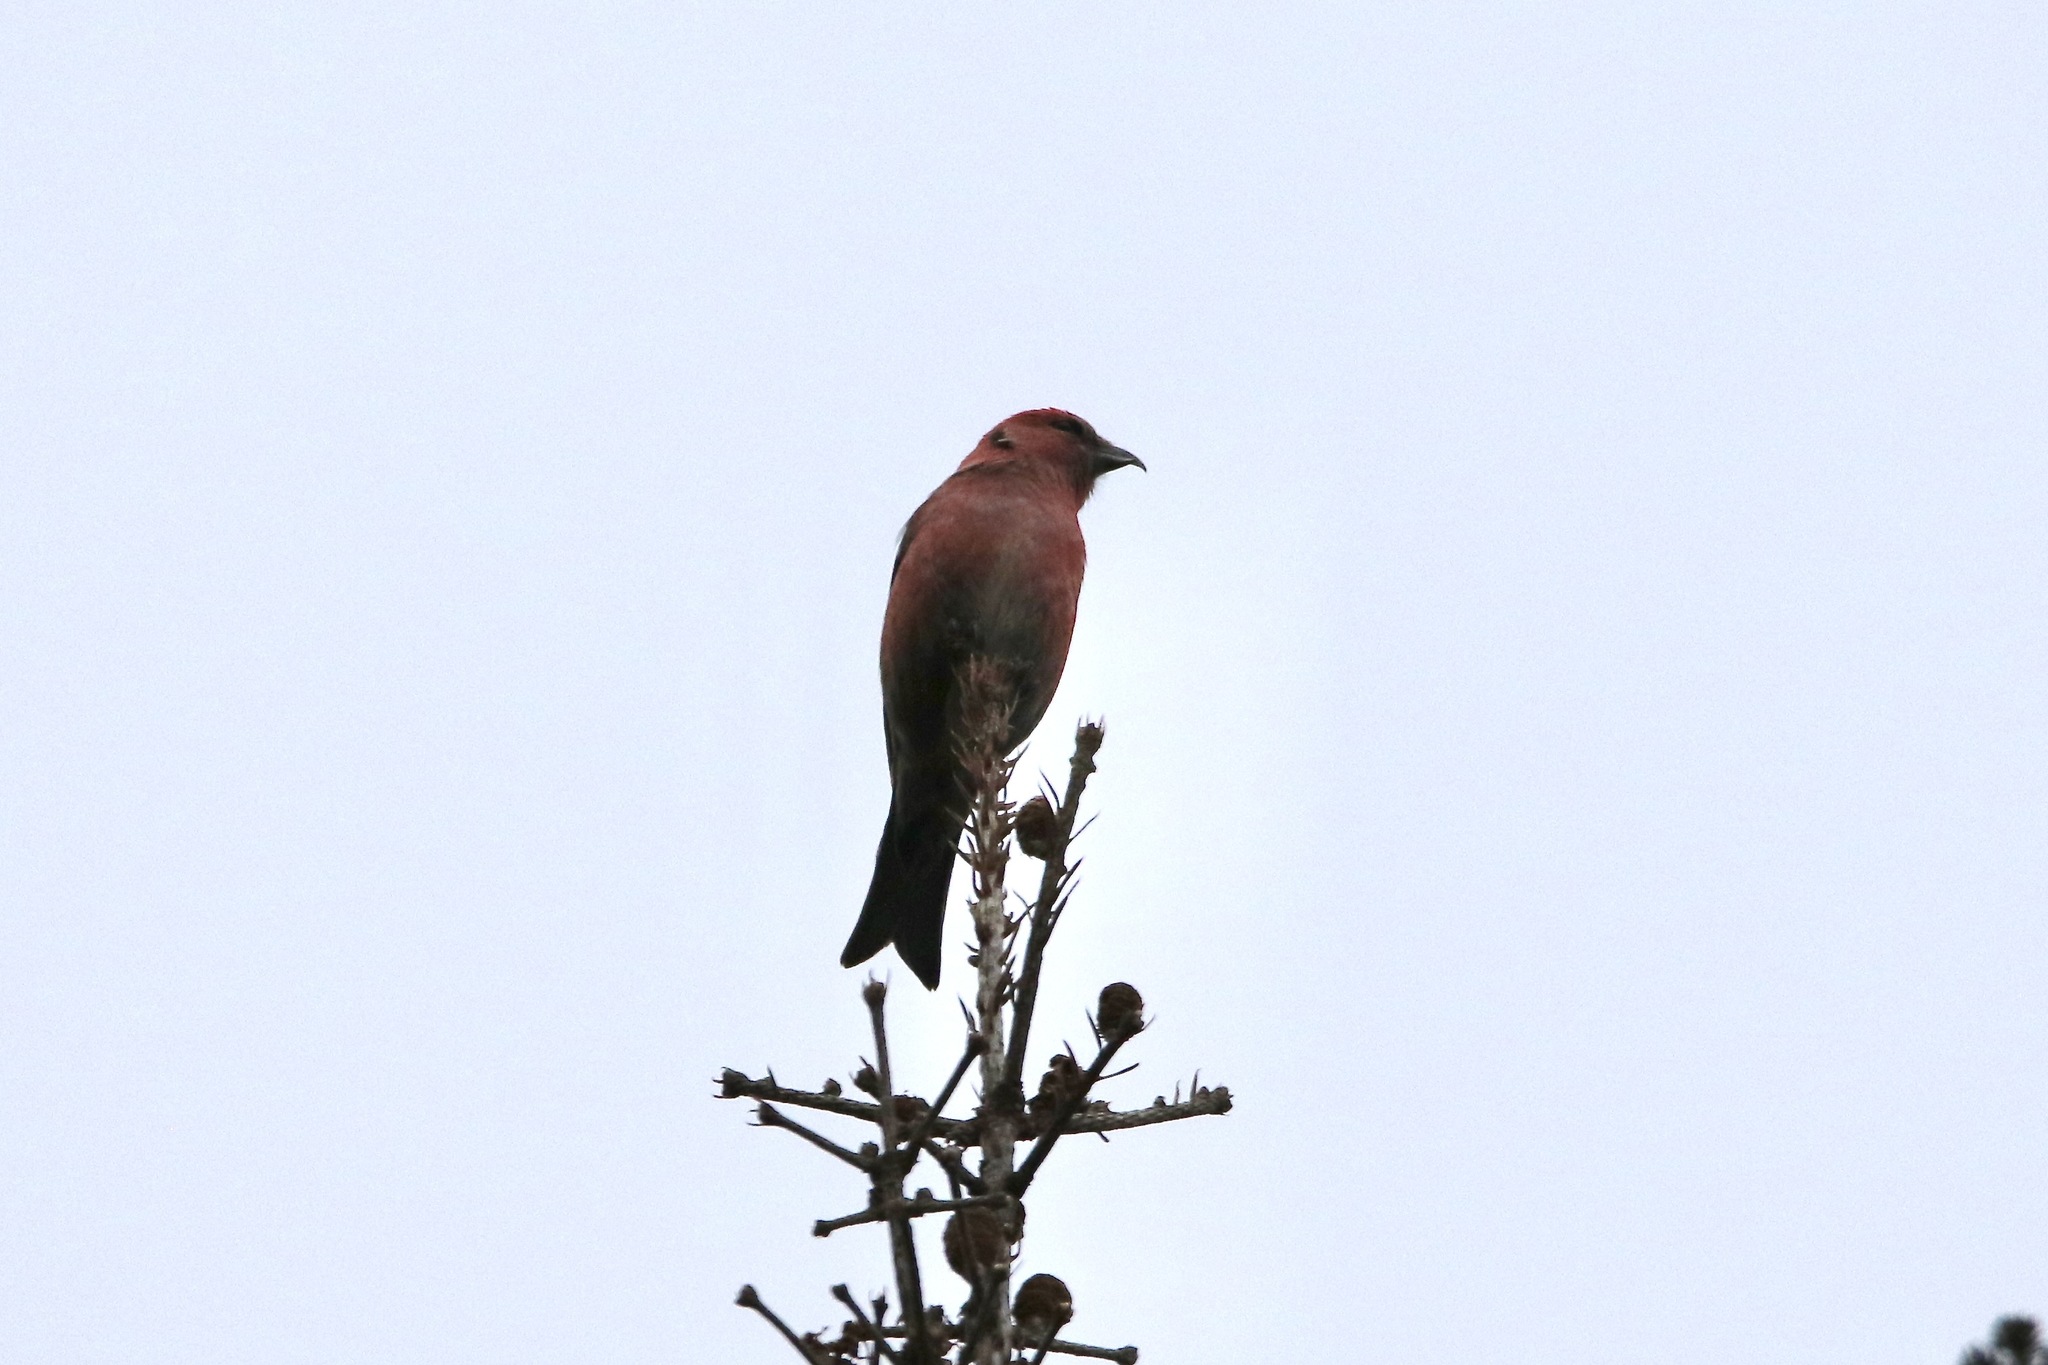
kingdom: Animalia
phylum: Chordata
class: Aves
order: Passeriformes
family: Fringillidae
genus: Loxia
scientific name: Loxia leucoptera
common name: Two-barred crossbill
